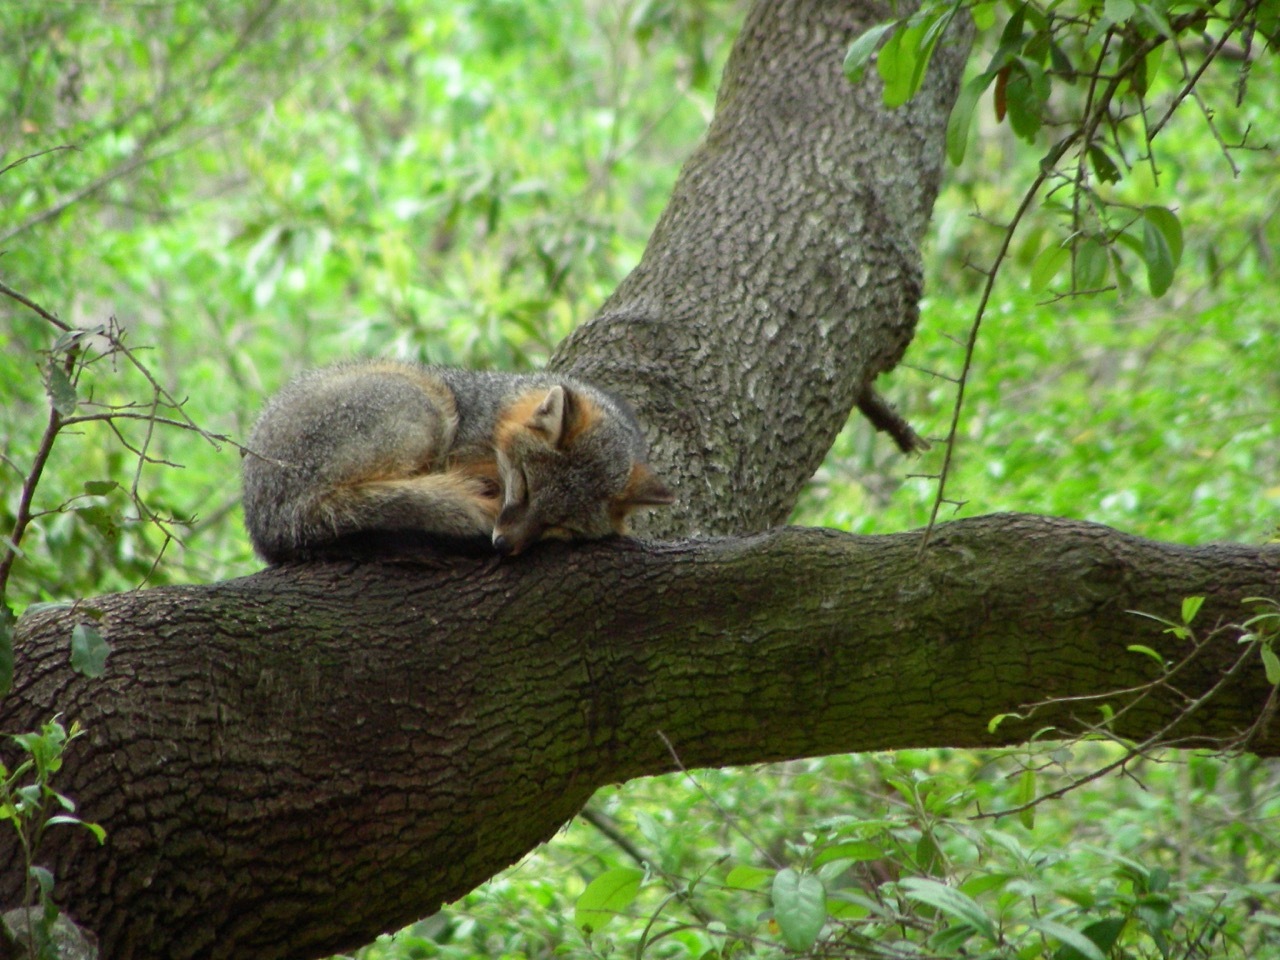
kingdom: Animalia
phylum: Chordata
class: Mammalia
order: Carnivora
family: Canidae
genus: Urocyon
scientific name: Urocyon cinereoargenteus
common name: Gray fox
